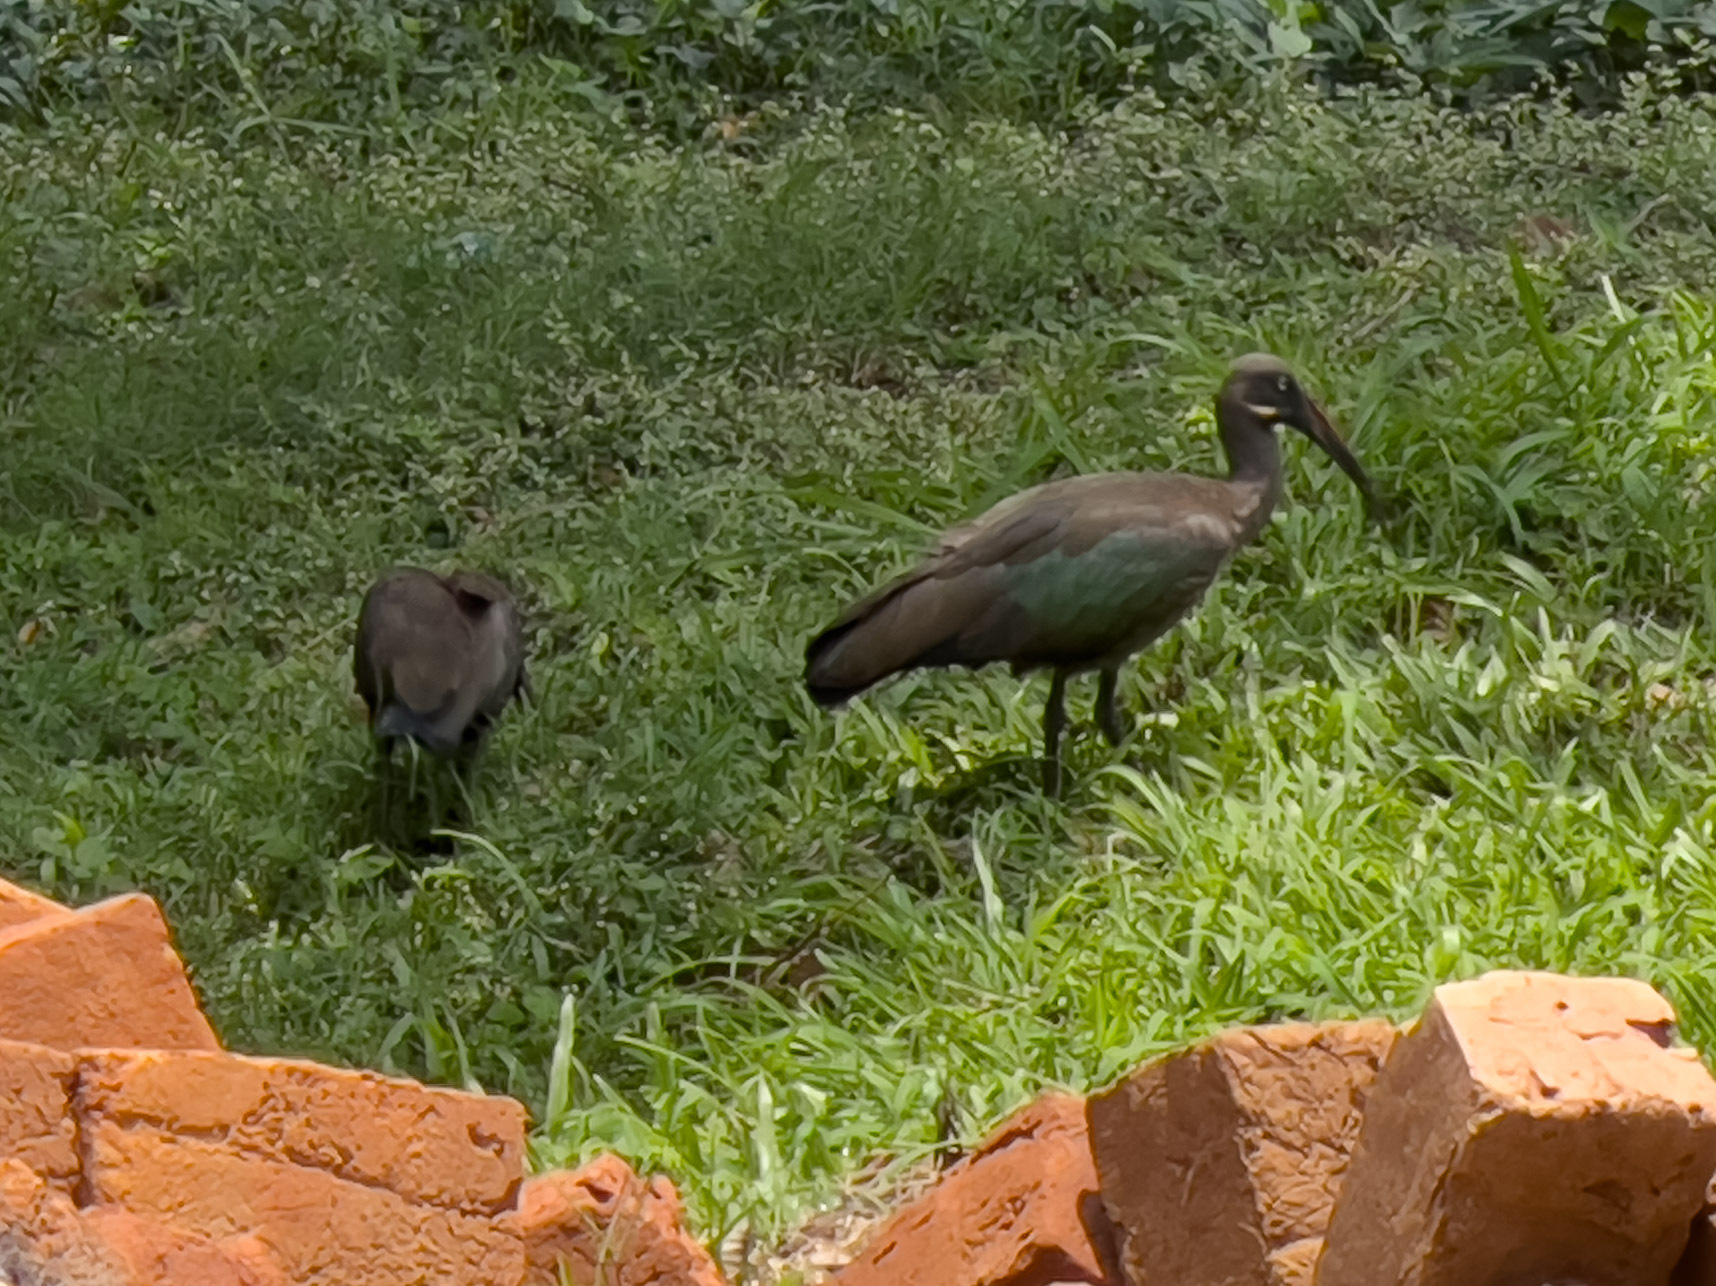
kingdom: Animalia
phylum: Chordata
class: Aves
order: Pelecaniformes
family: Threskiornithidae
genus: Bostrychia
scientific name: Bostrychia hagedash
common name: Hadada ibis
